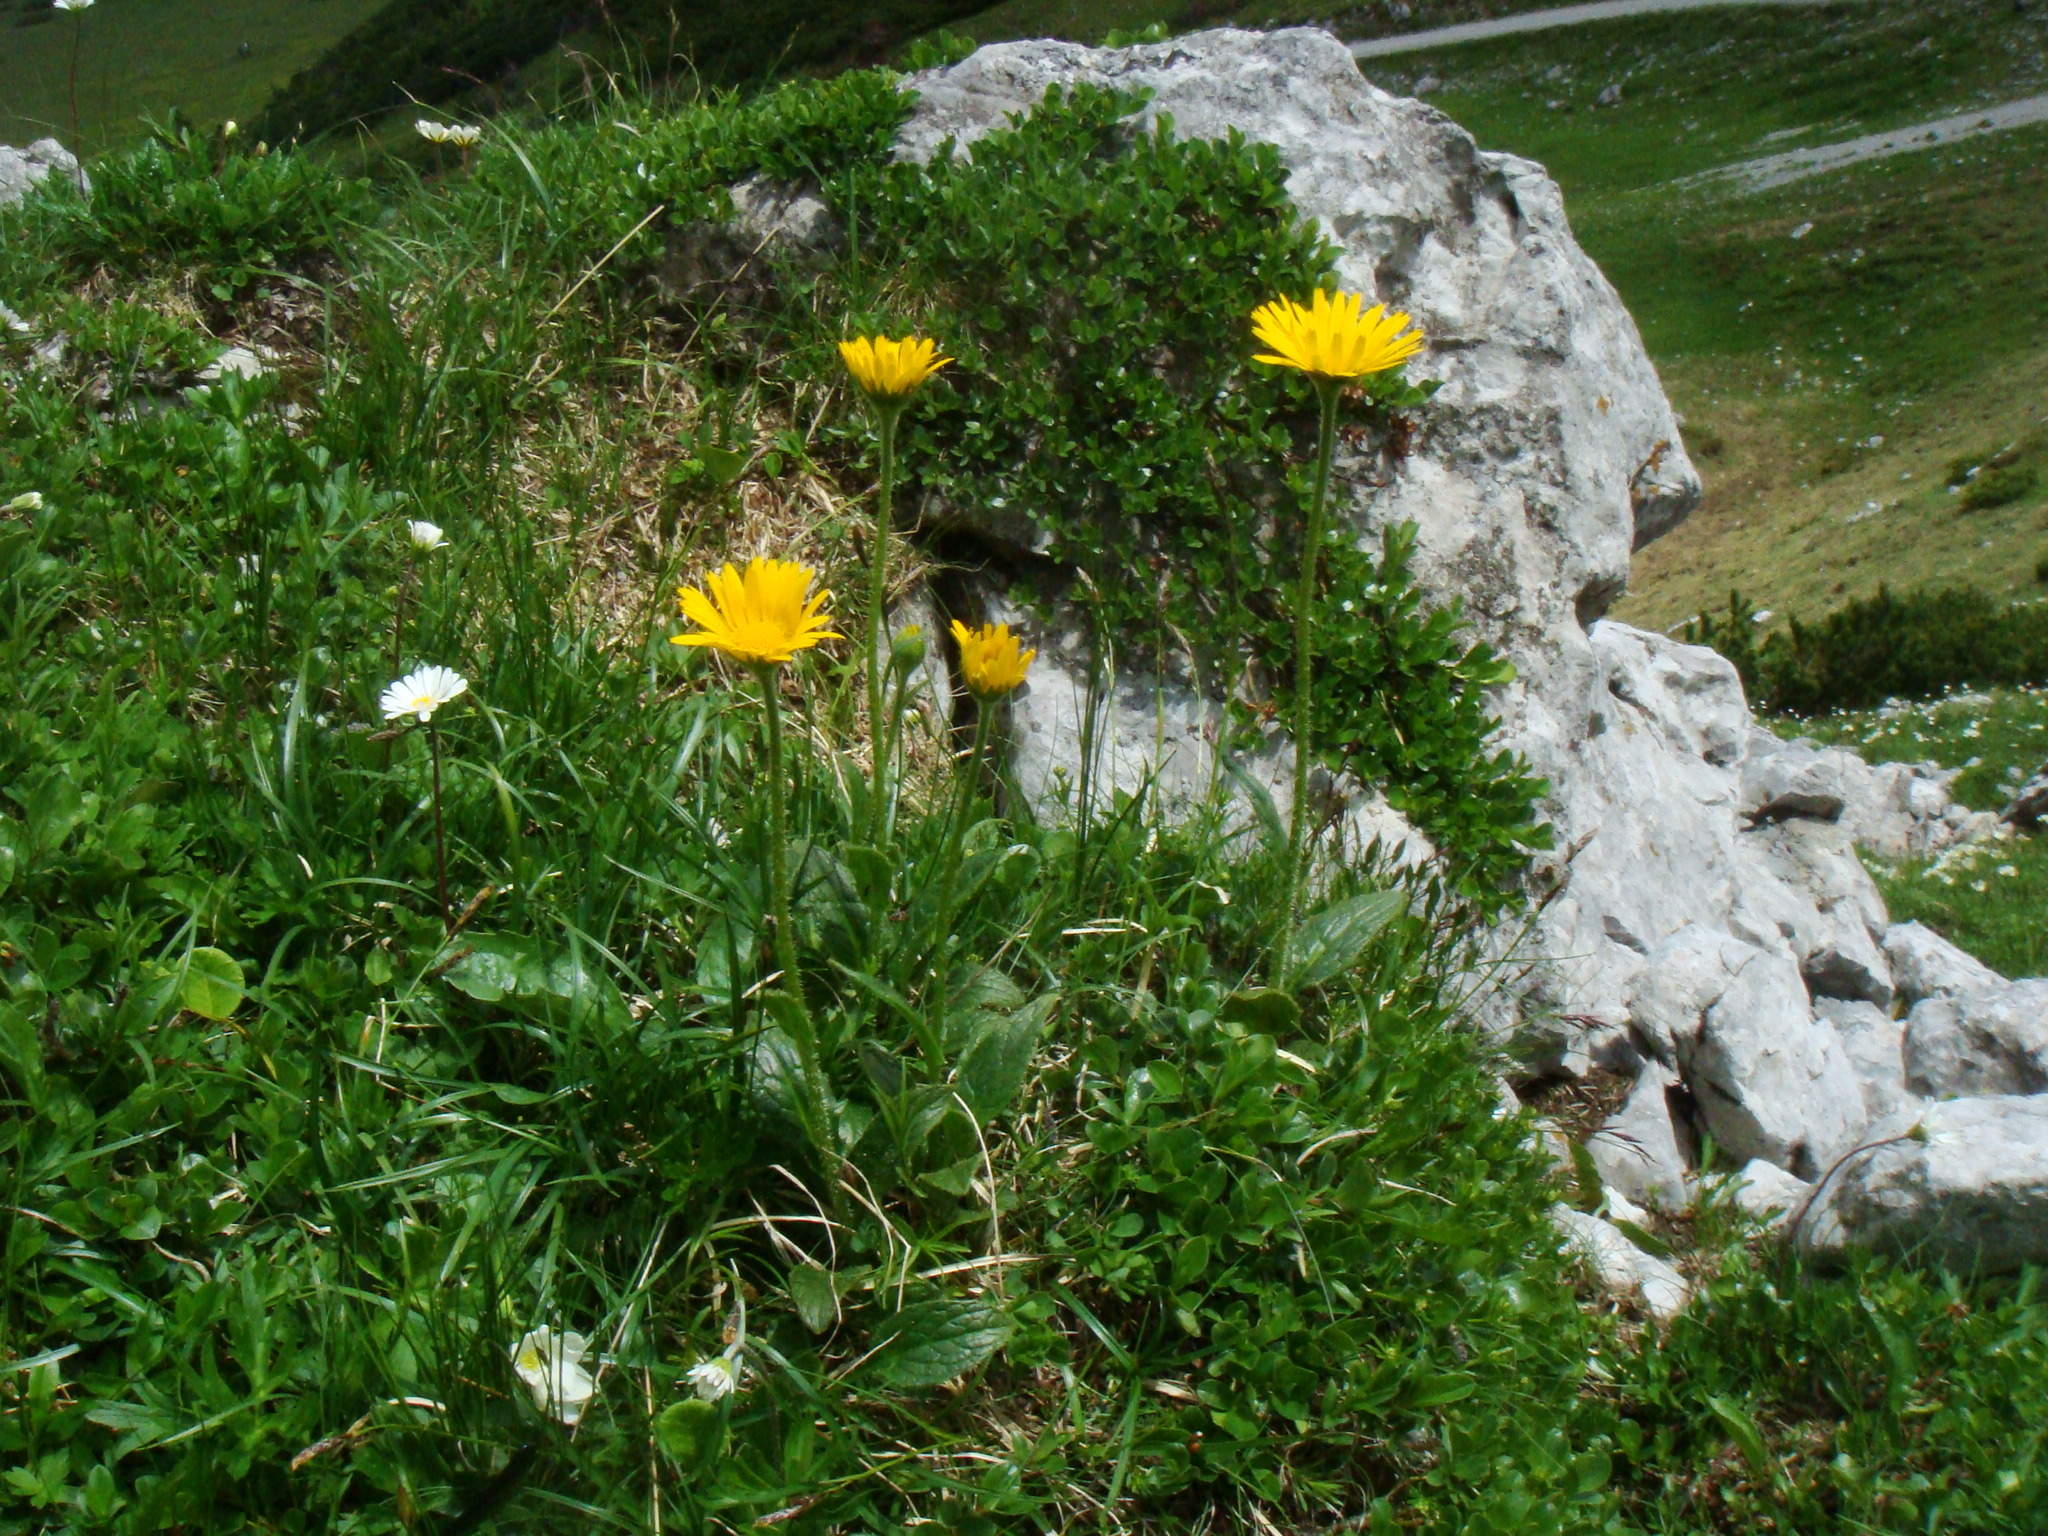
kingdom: Plantae
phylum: Tracheophyta
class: Magnoliopsida
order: Asterales
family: Asteraceae
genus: Doronicum
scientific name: Doronicum glaciale
